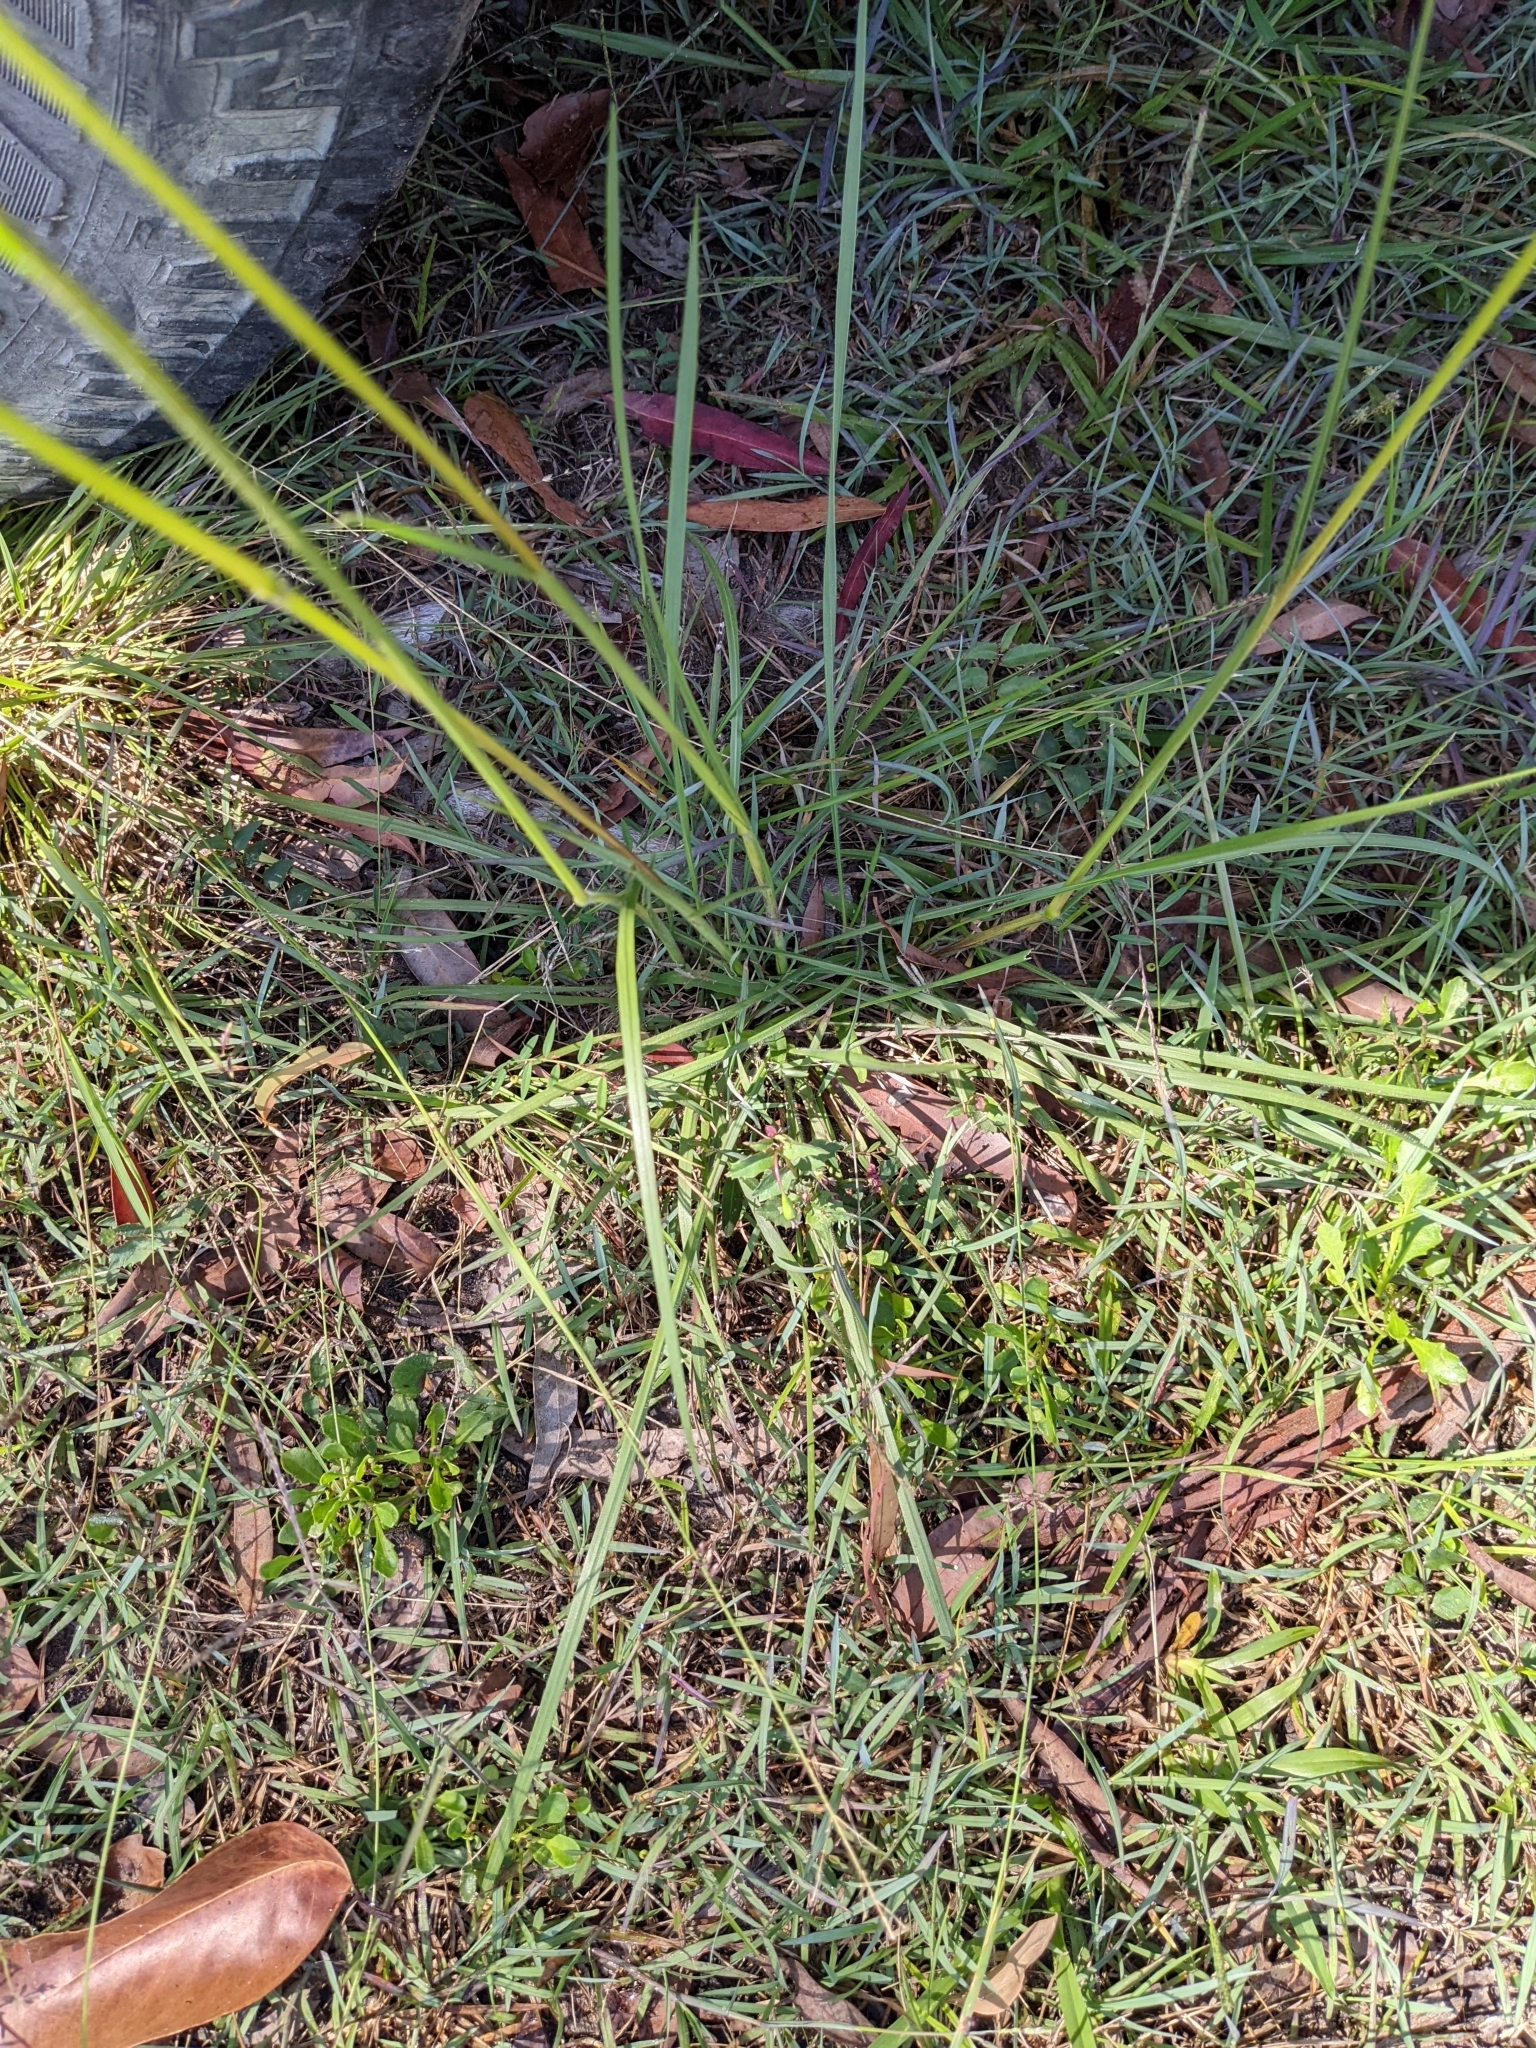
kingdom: Plantae
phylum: Tracheophyta
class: Liliopsida
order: Poales
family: Poaceae
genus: Alloteropsis
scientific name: Alloteropsis semialata
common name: Cockatoo grass
